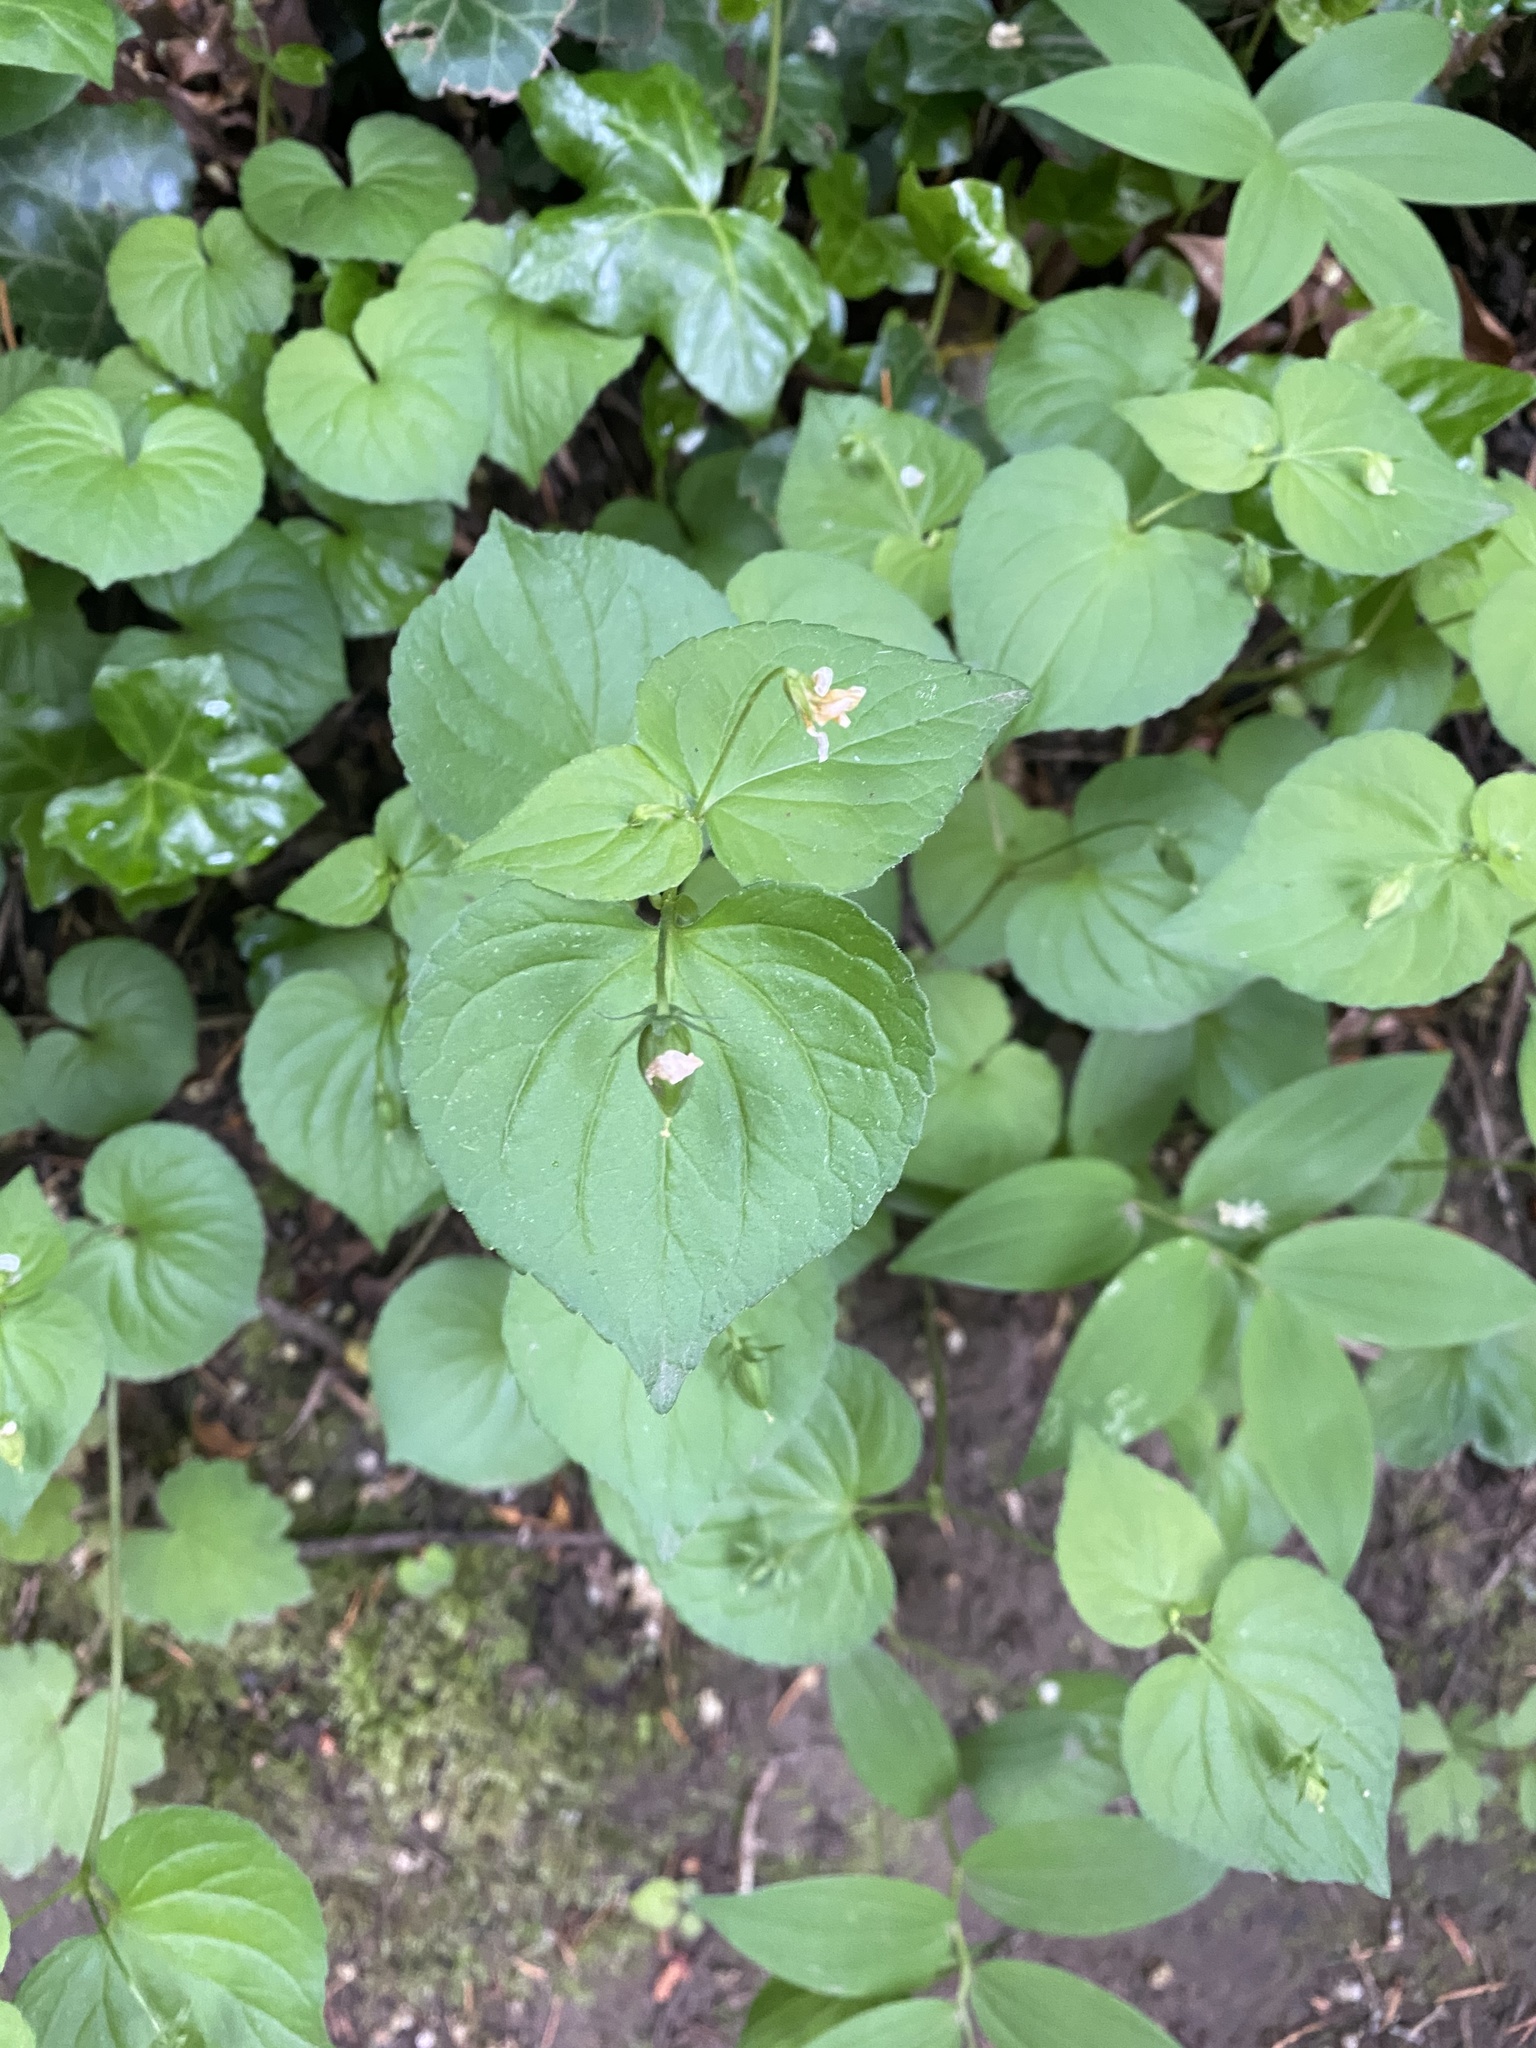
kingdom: Plantae
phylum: Tracheophyta
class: Magnoliopsida
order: Malpighiales
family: Violaceae
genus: Viola
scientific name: Viola glabella
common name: Stream violet
